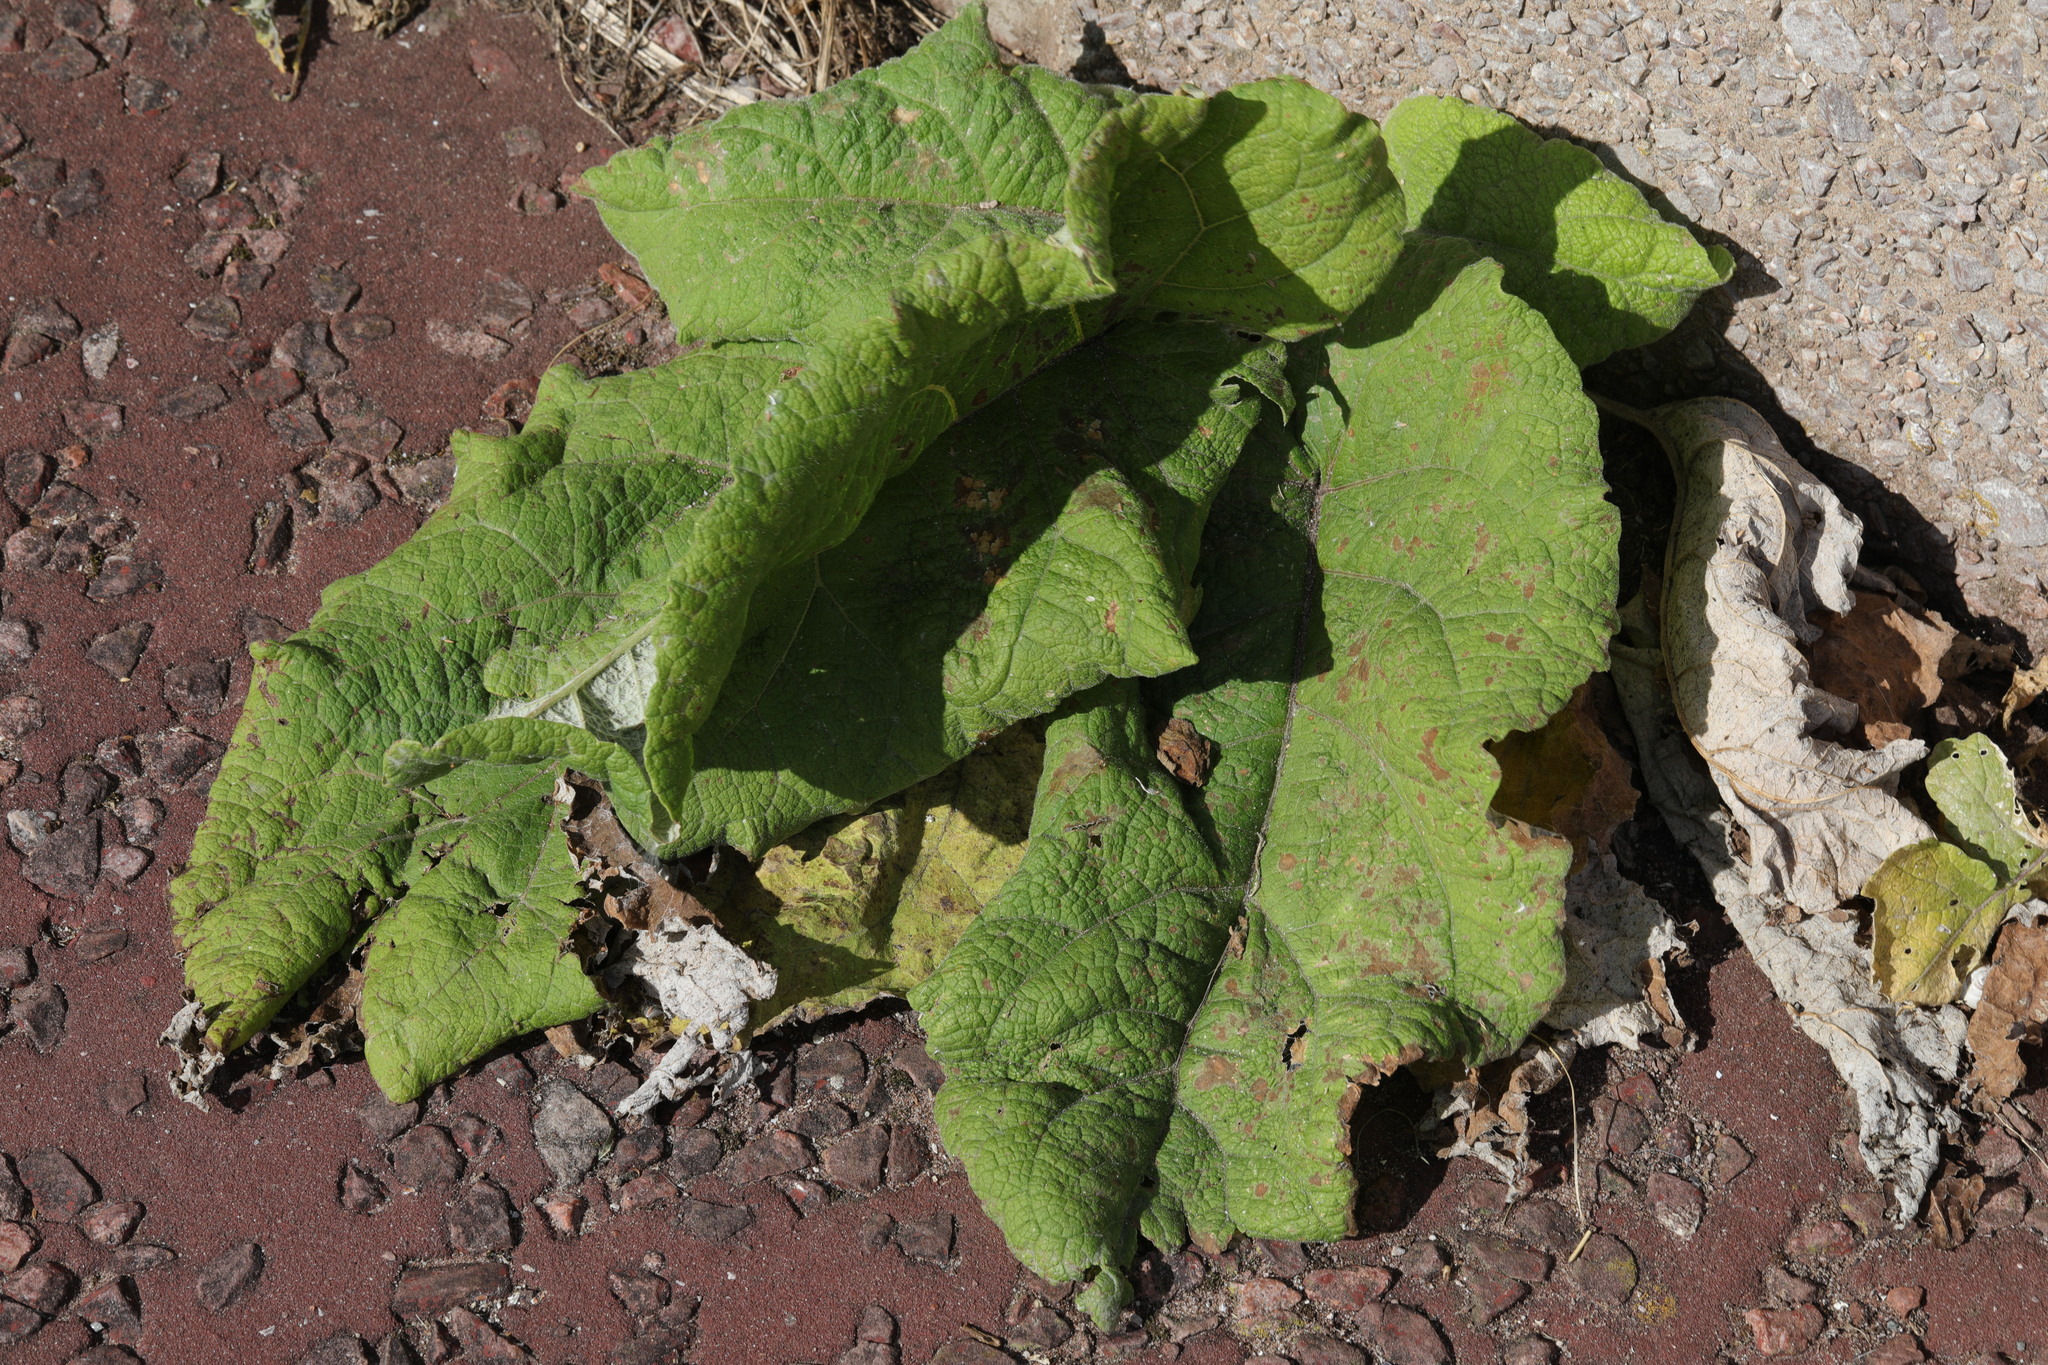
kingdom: Plantae
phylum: Tracheophyta
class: Magnoliopsida
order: Asterales
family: Asteraceae
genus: Arctium
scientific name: Arctium minus
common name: Lesser burdock
